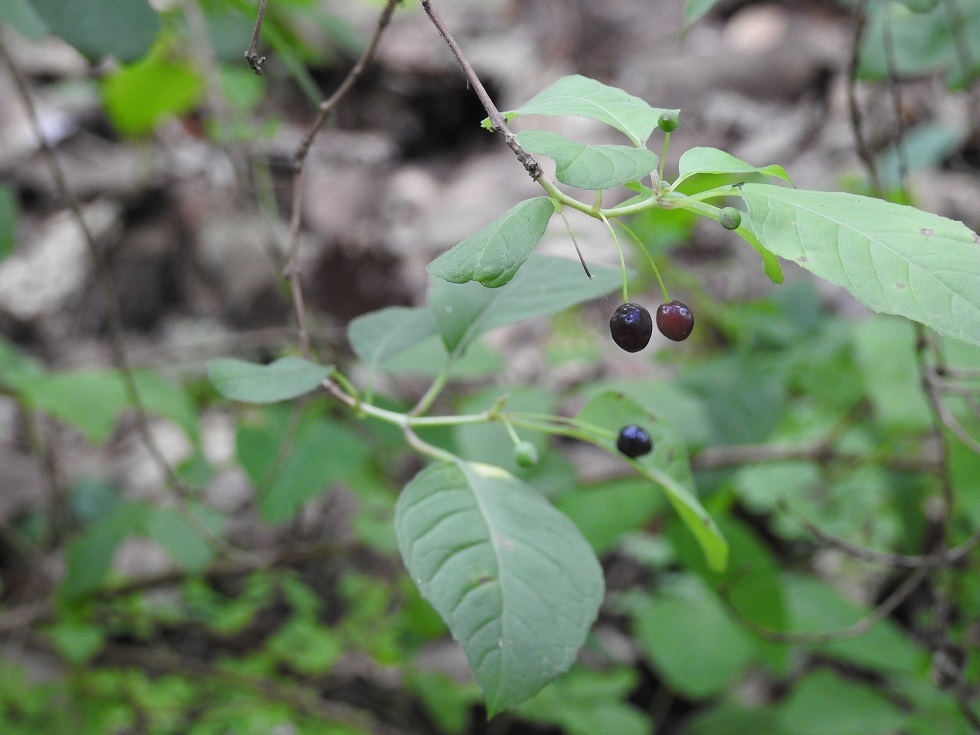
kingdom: Plantae
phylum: Tracheophyta
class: Magnoliopsida
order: Myrtales
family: Onagraceae
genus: Fuchsia
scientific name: Fuchsia encliandra
